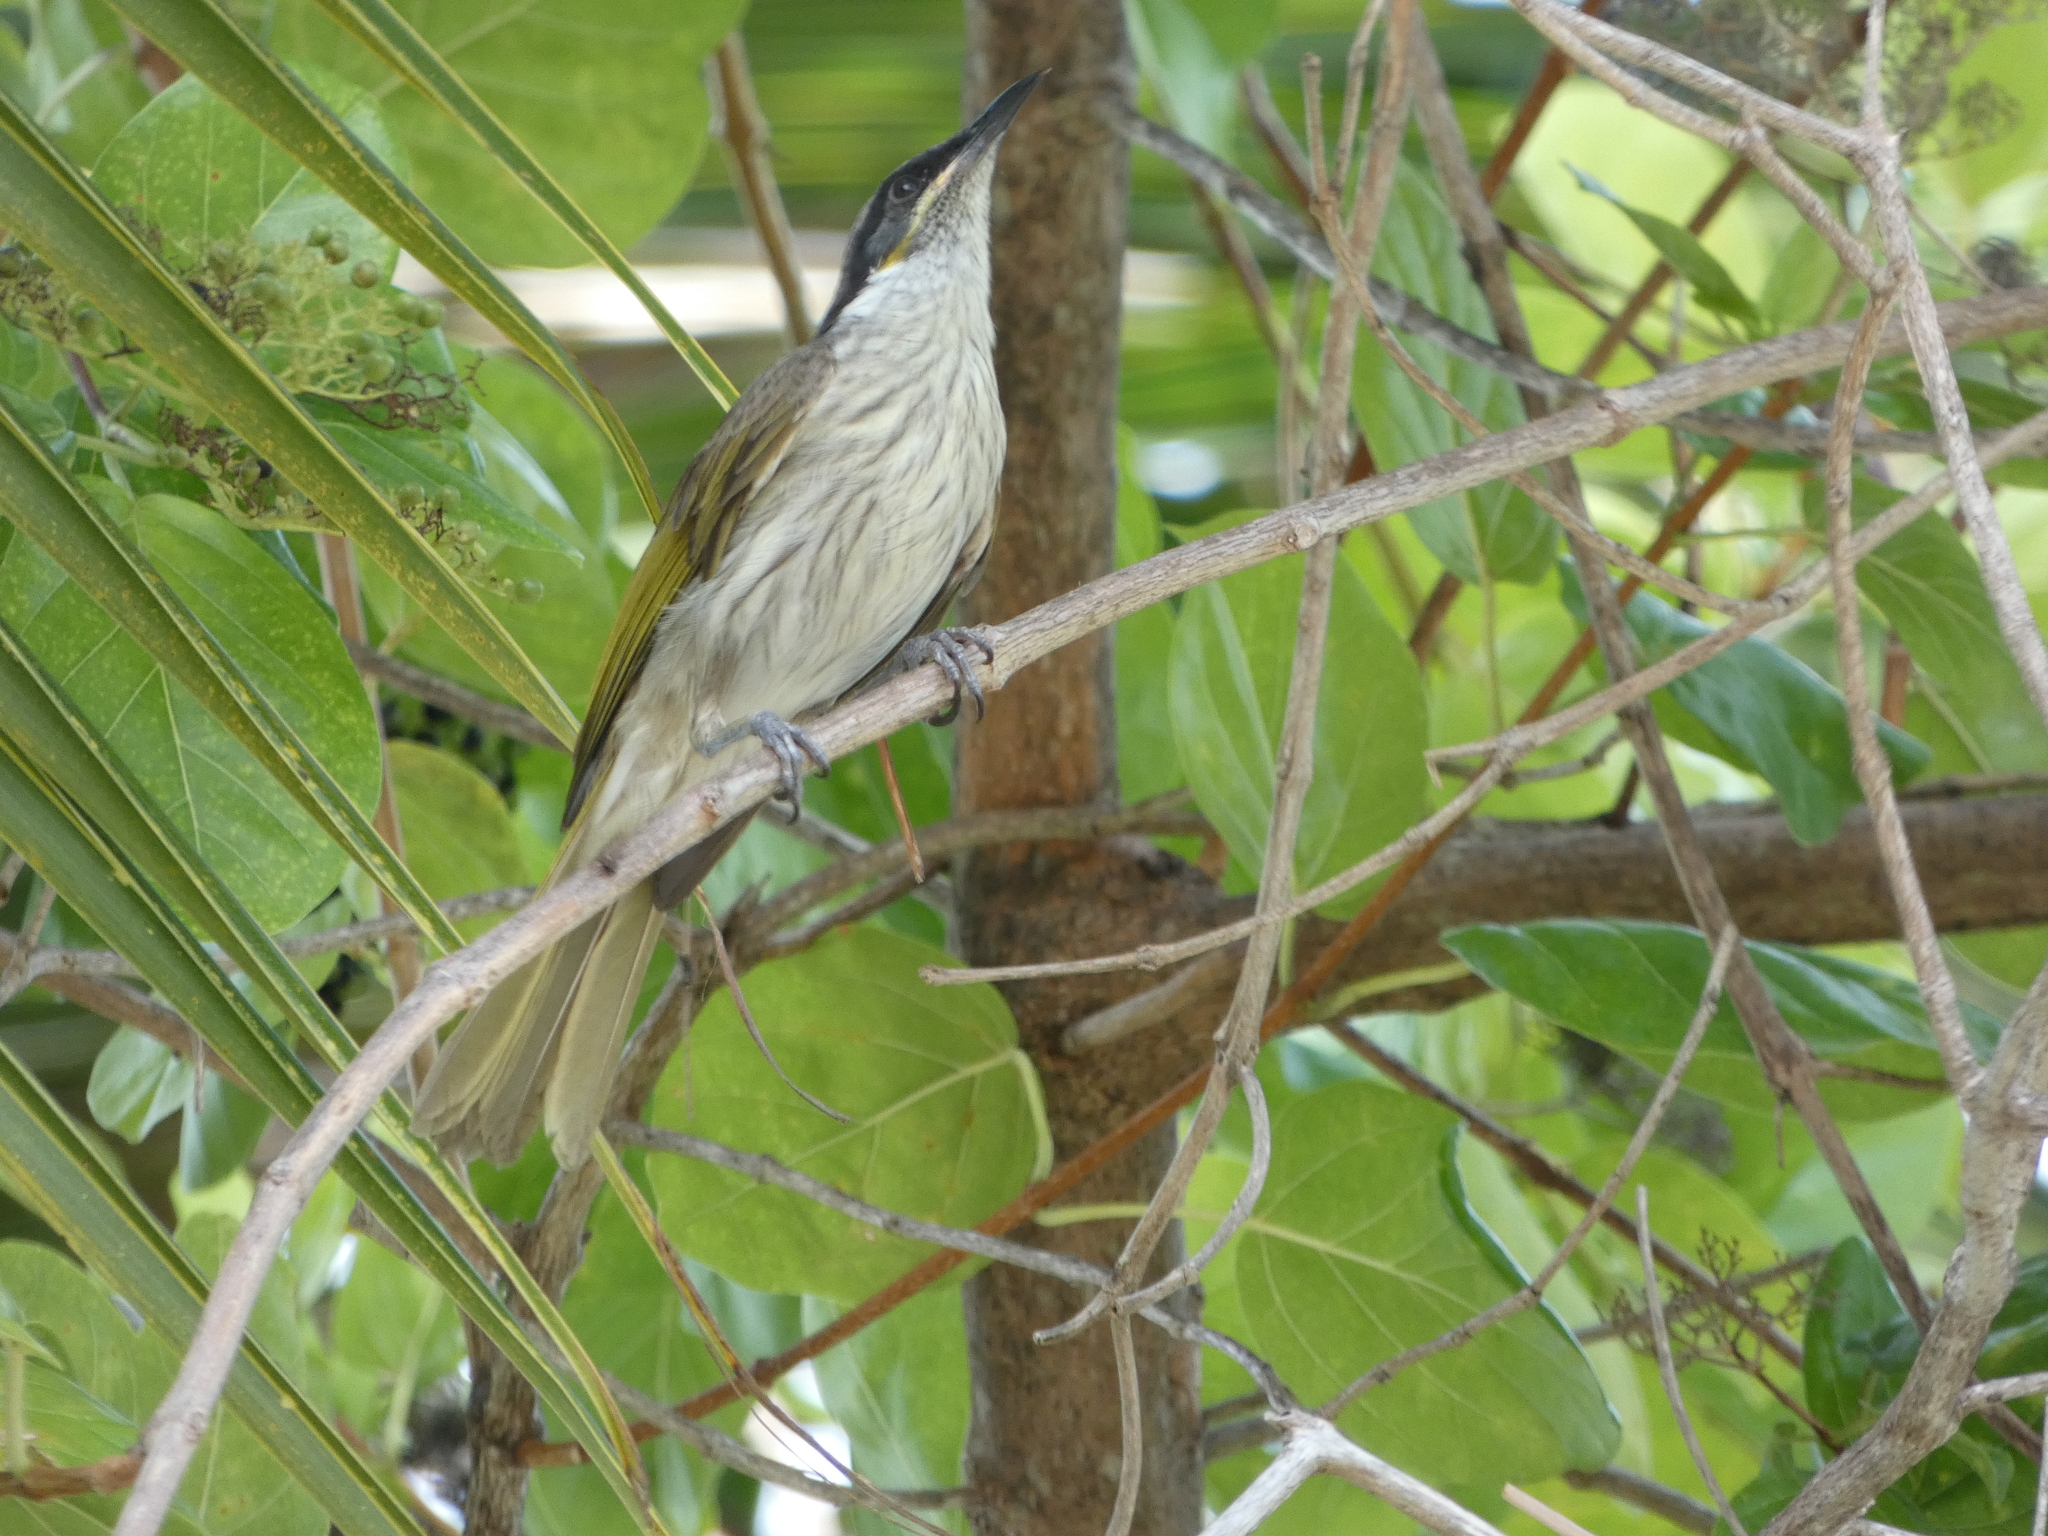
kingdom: Animalia
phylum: Chordata
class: Aves
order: Passeriformes
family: Meliphagidae
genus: Gavicalis
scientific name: Gavicalis versicolor
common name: Varied honeyeater
